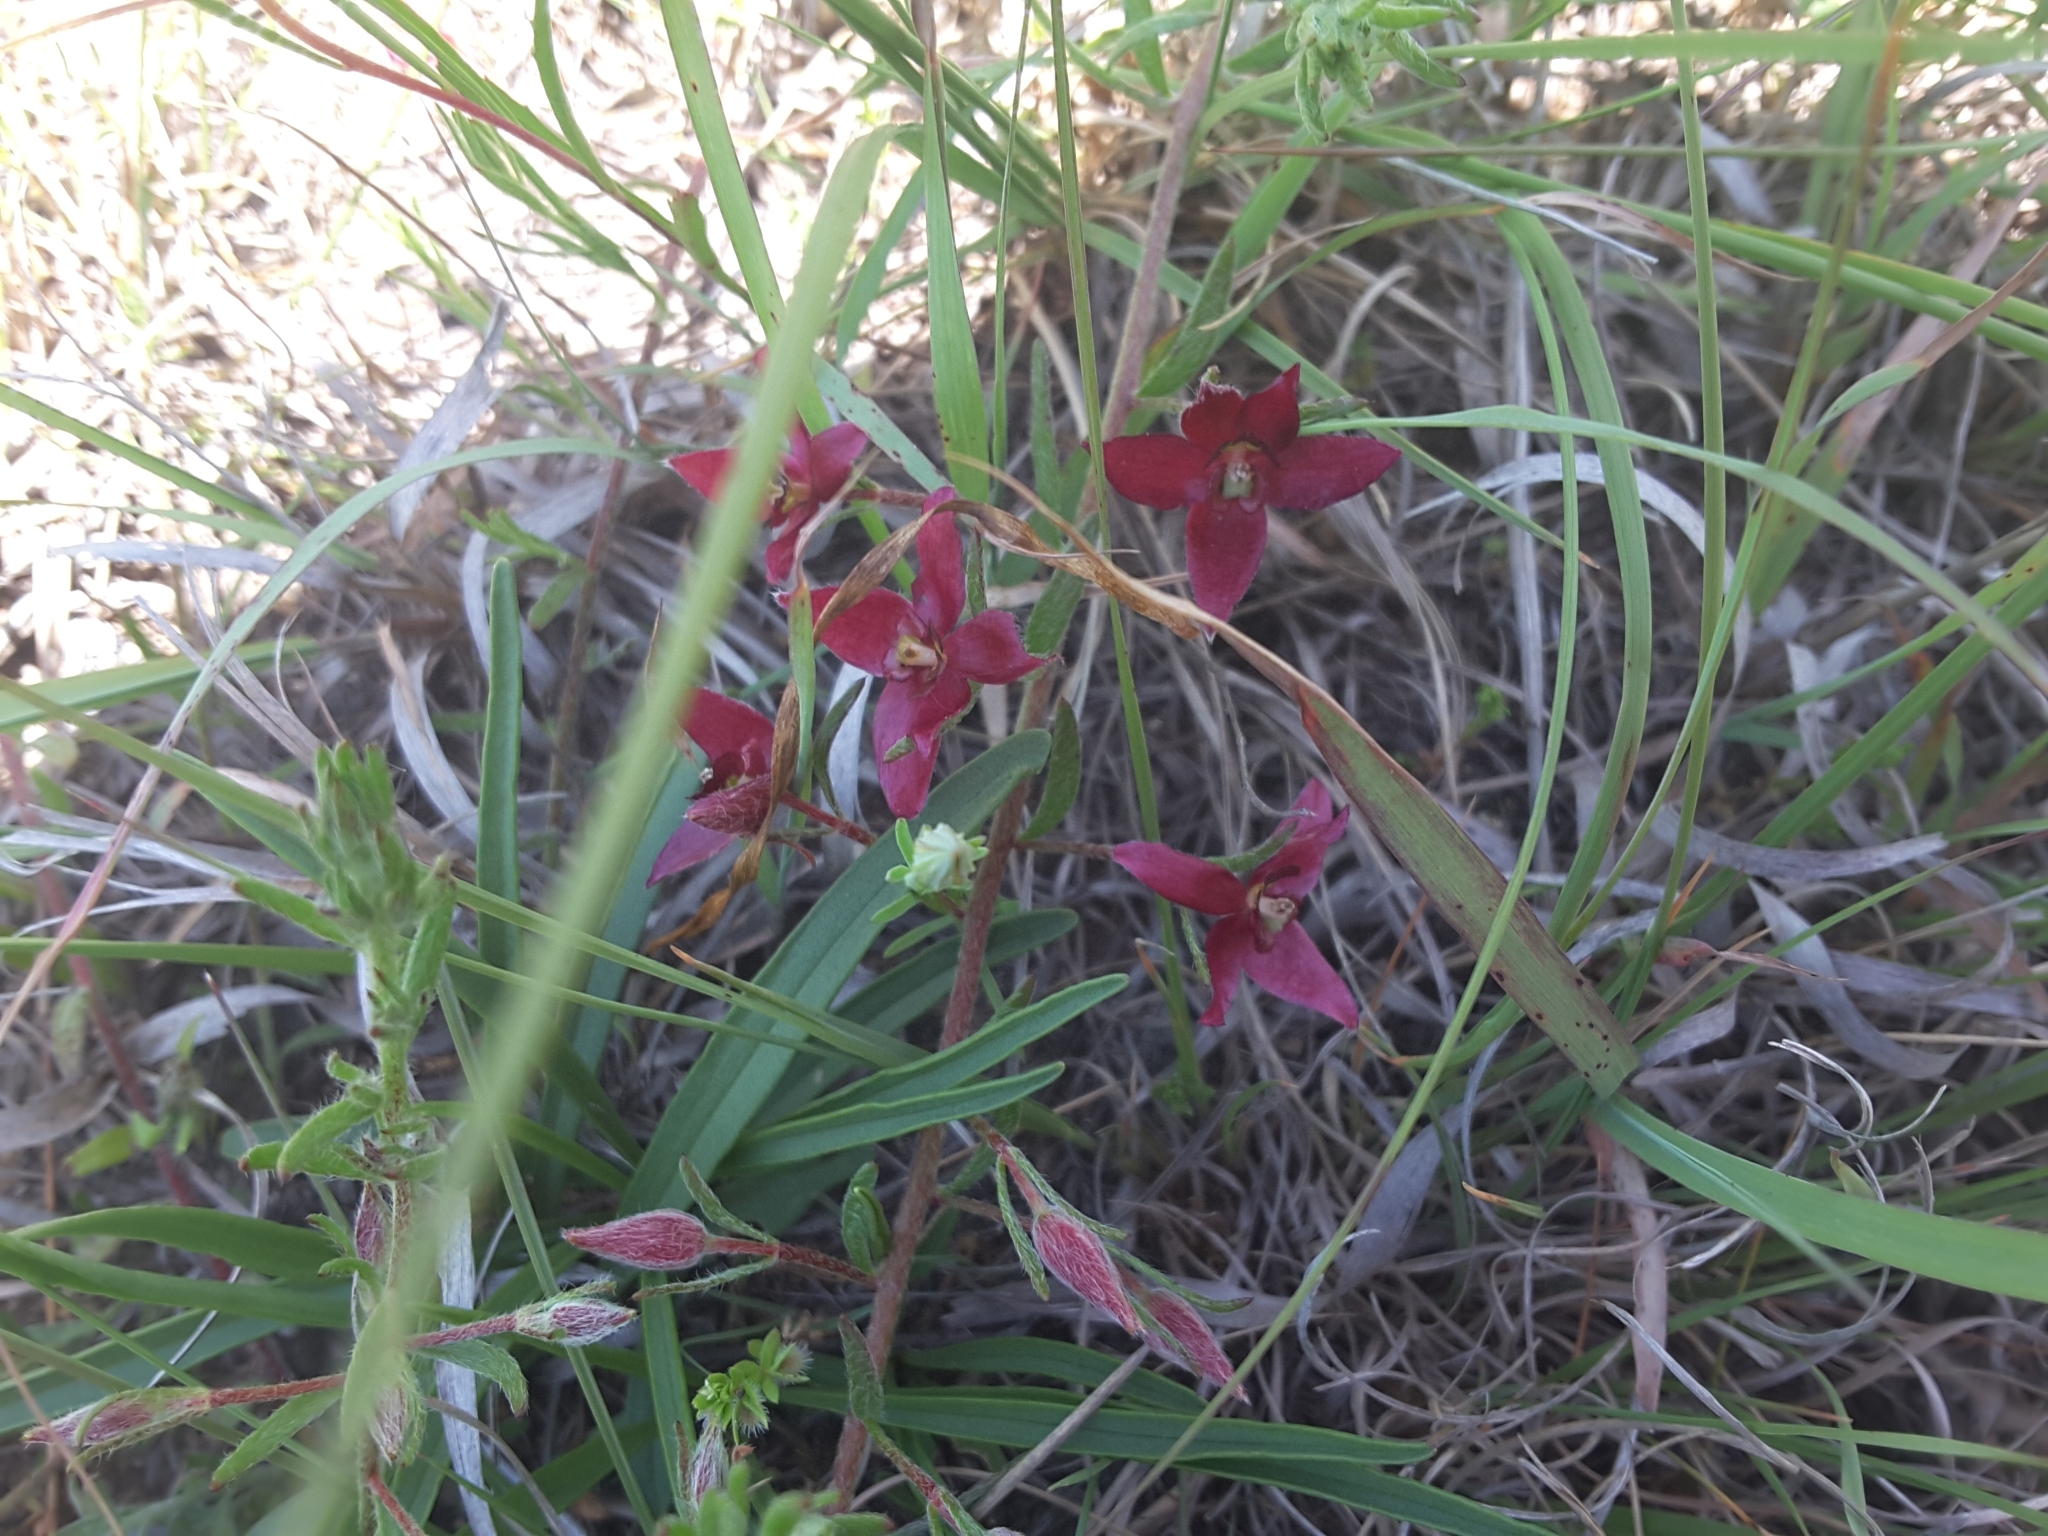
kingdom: Plantae
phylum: Tracheophyta
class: Magnoliopsida
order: Zygophyllales
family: Krameriaceae
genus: Krameria
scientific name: Krameria lanceolata
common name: Ratany
